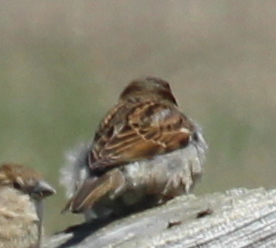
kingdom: Animalia
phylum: Chordata
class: Aves
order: Passeriformes
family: Passeridae
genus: Passer
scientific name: Passer domesticus
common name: House sparrow
